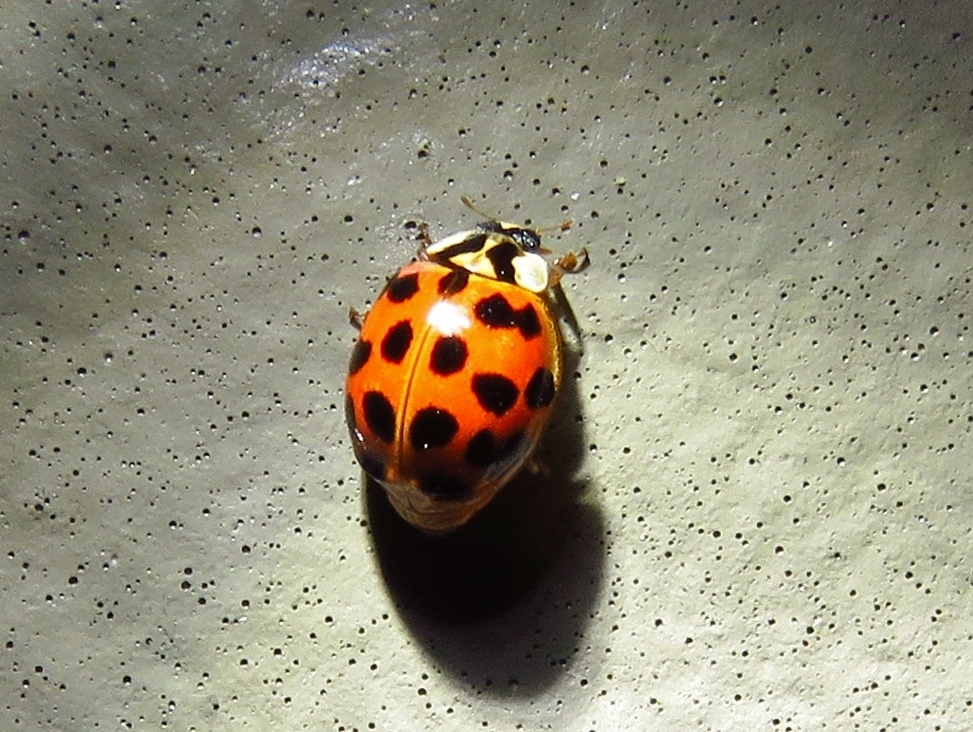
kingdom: Animalia
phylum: Arthropoda
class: Insecta
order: Coleoptera
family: Coccinellidae
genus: Harmonia
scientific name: Harmonia axyridis
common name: Harlequin ladybird
